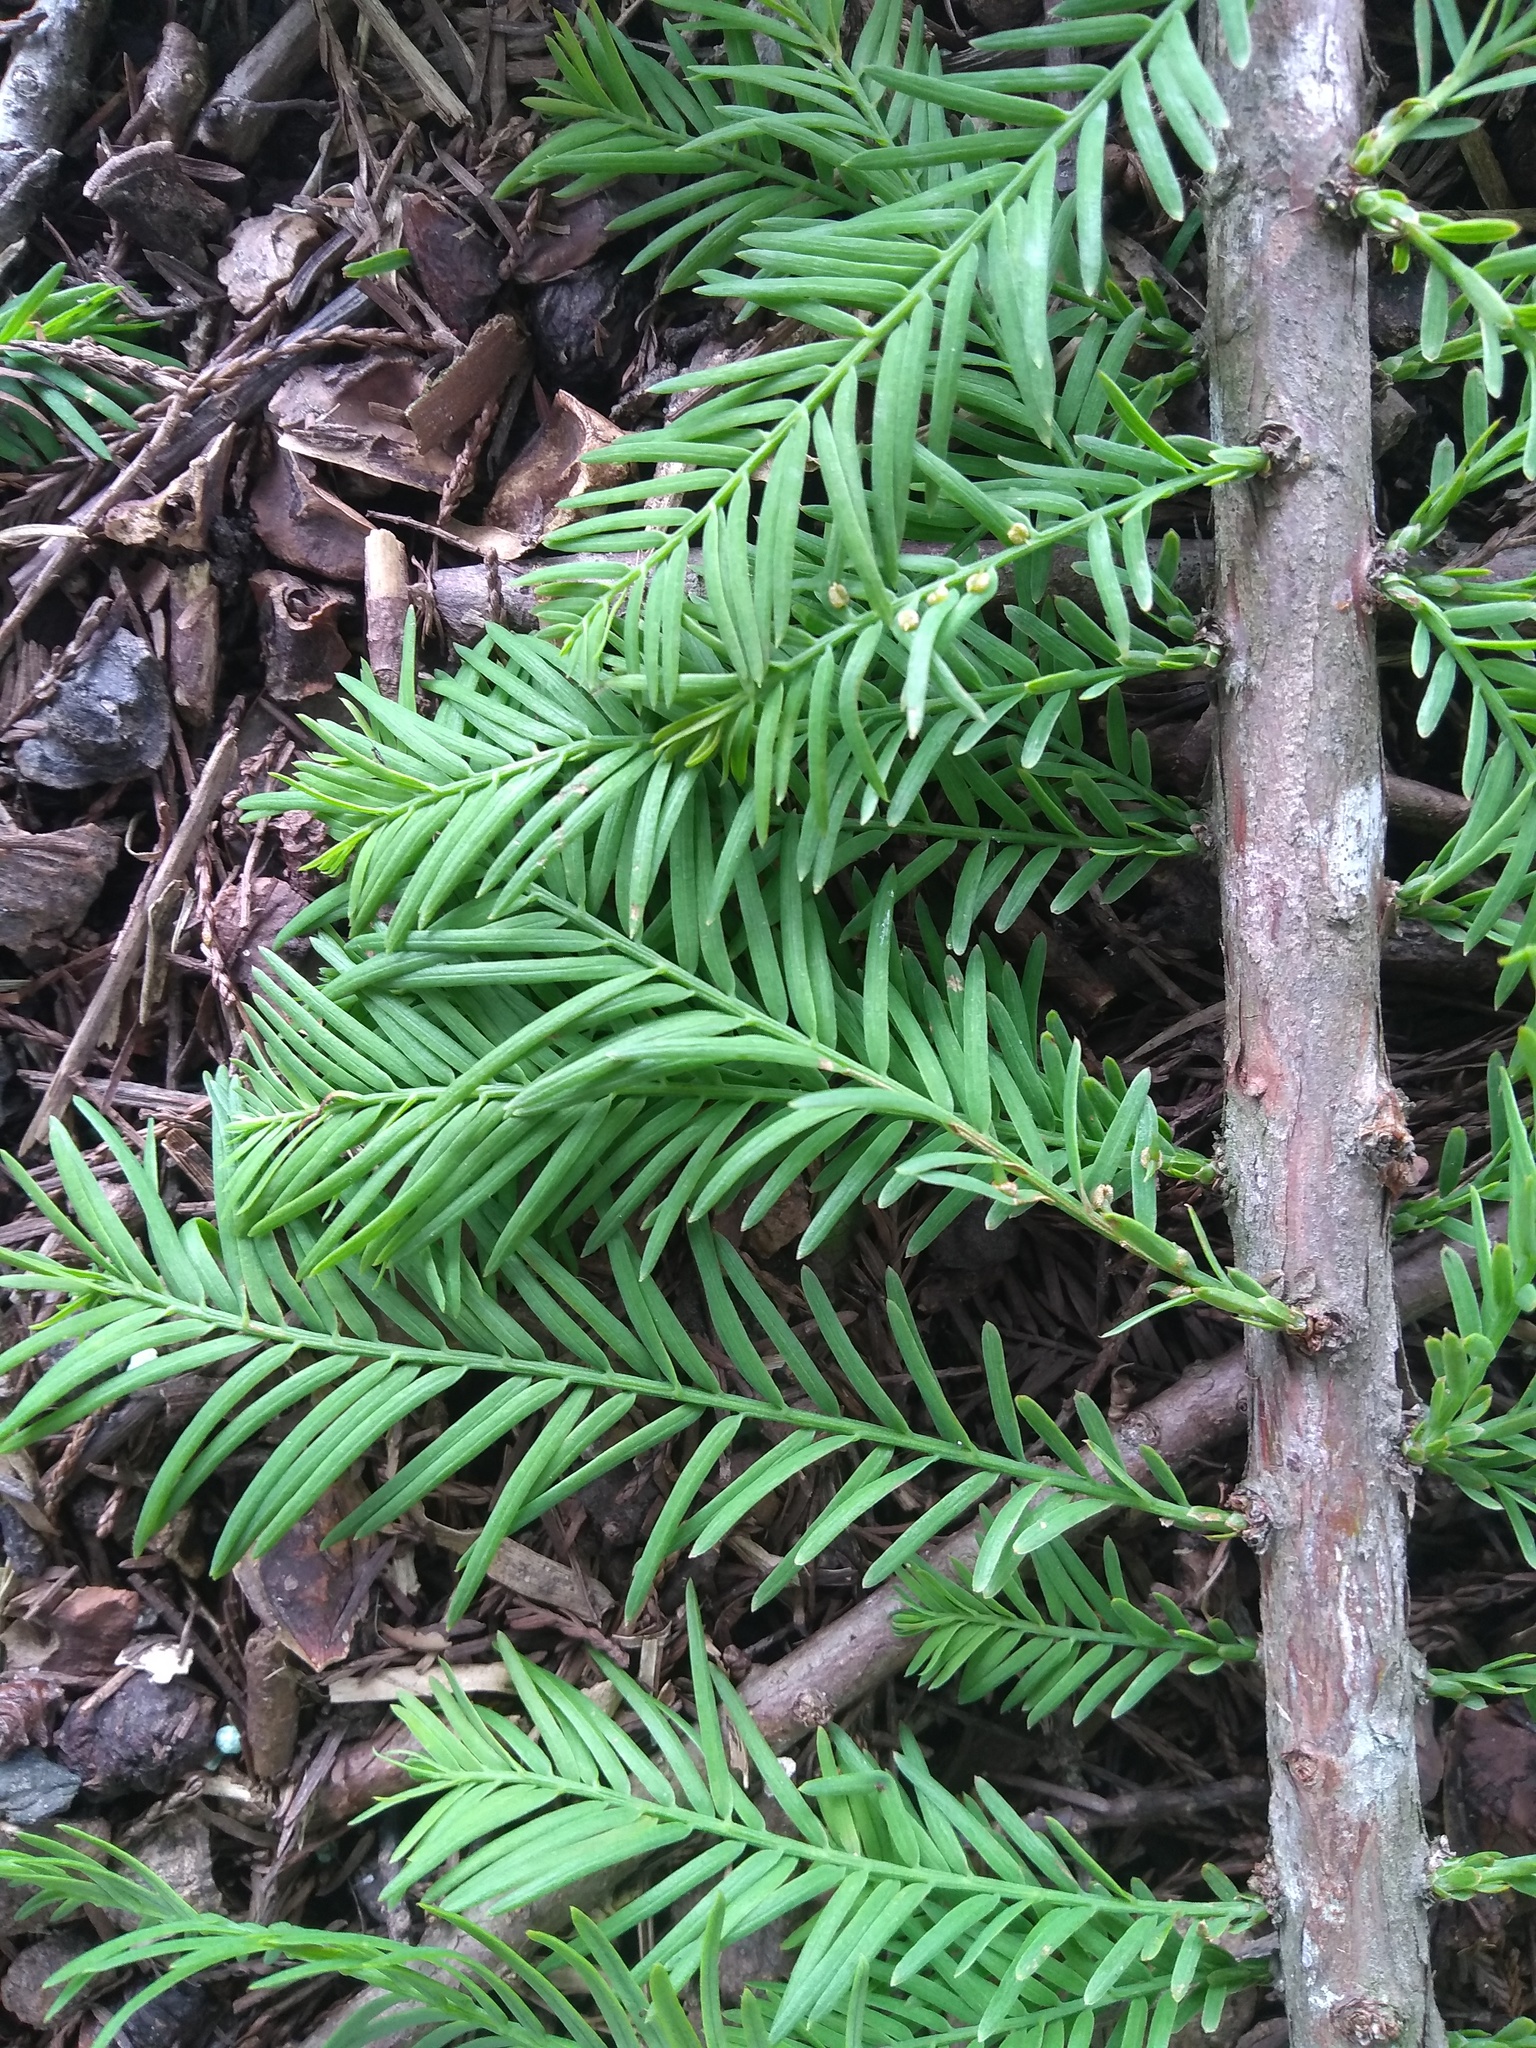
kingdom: Plantae
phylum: Tracheophyta
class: Pinopsida
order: Pinales
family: Cupressaceae
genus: Taxodium
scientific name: Taxodium distichum
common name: Bald cypress
